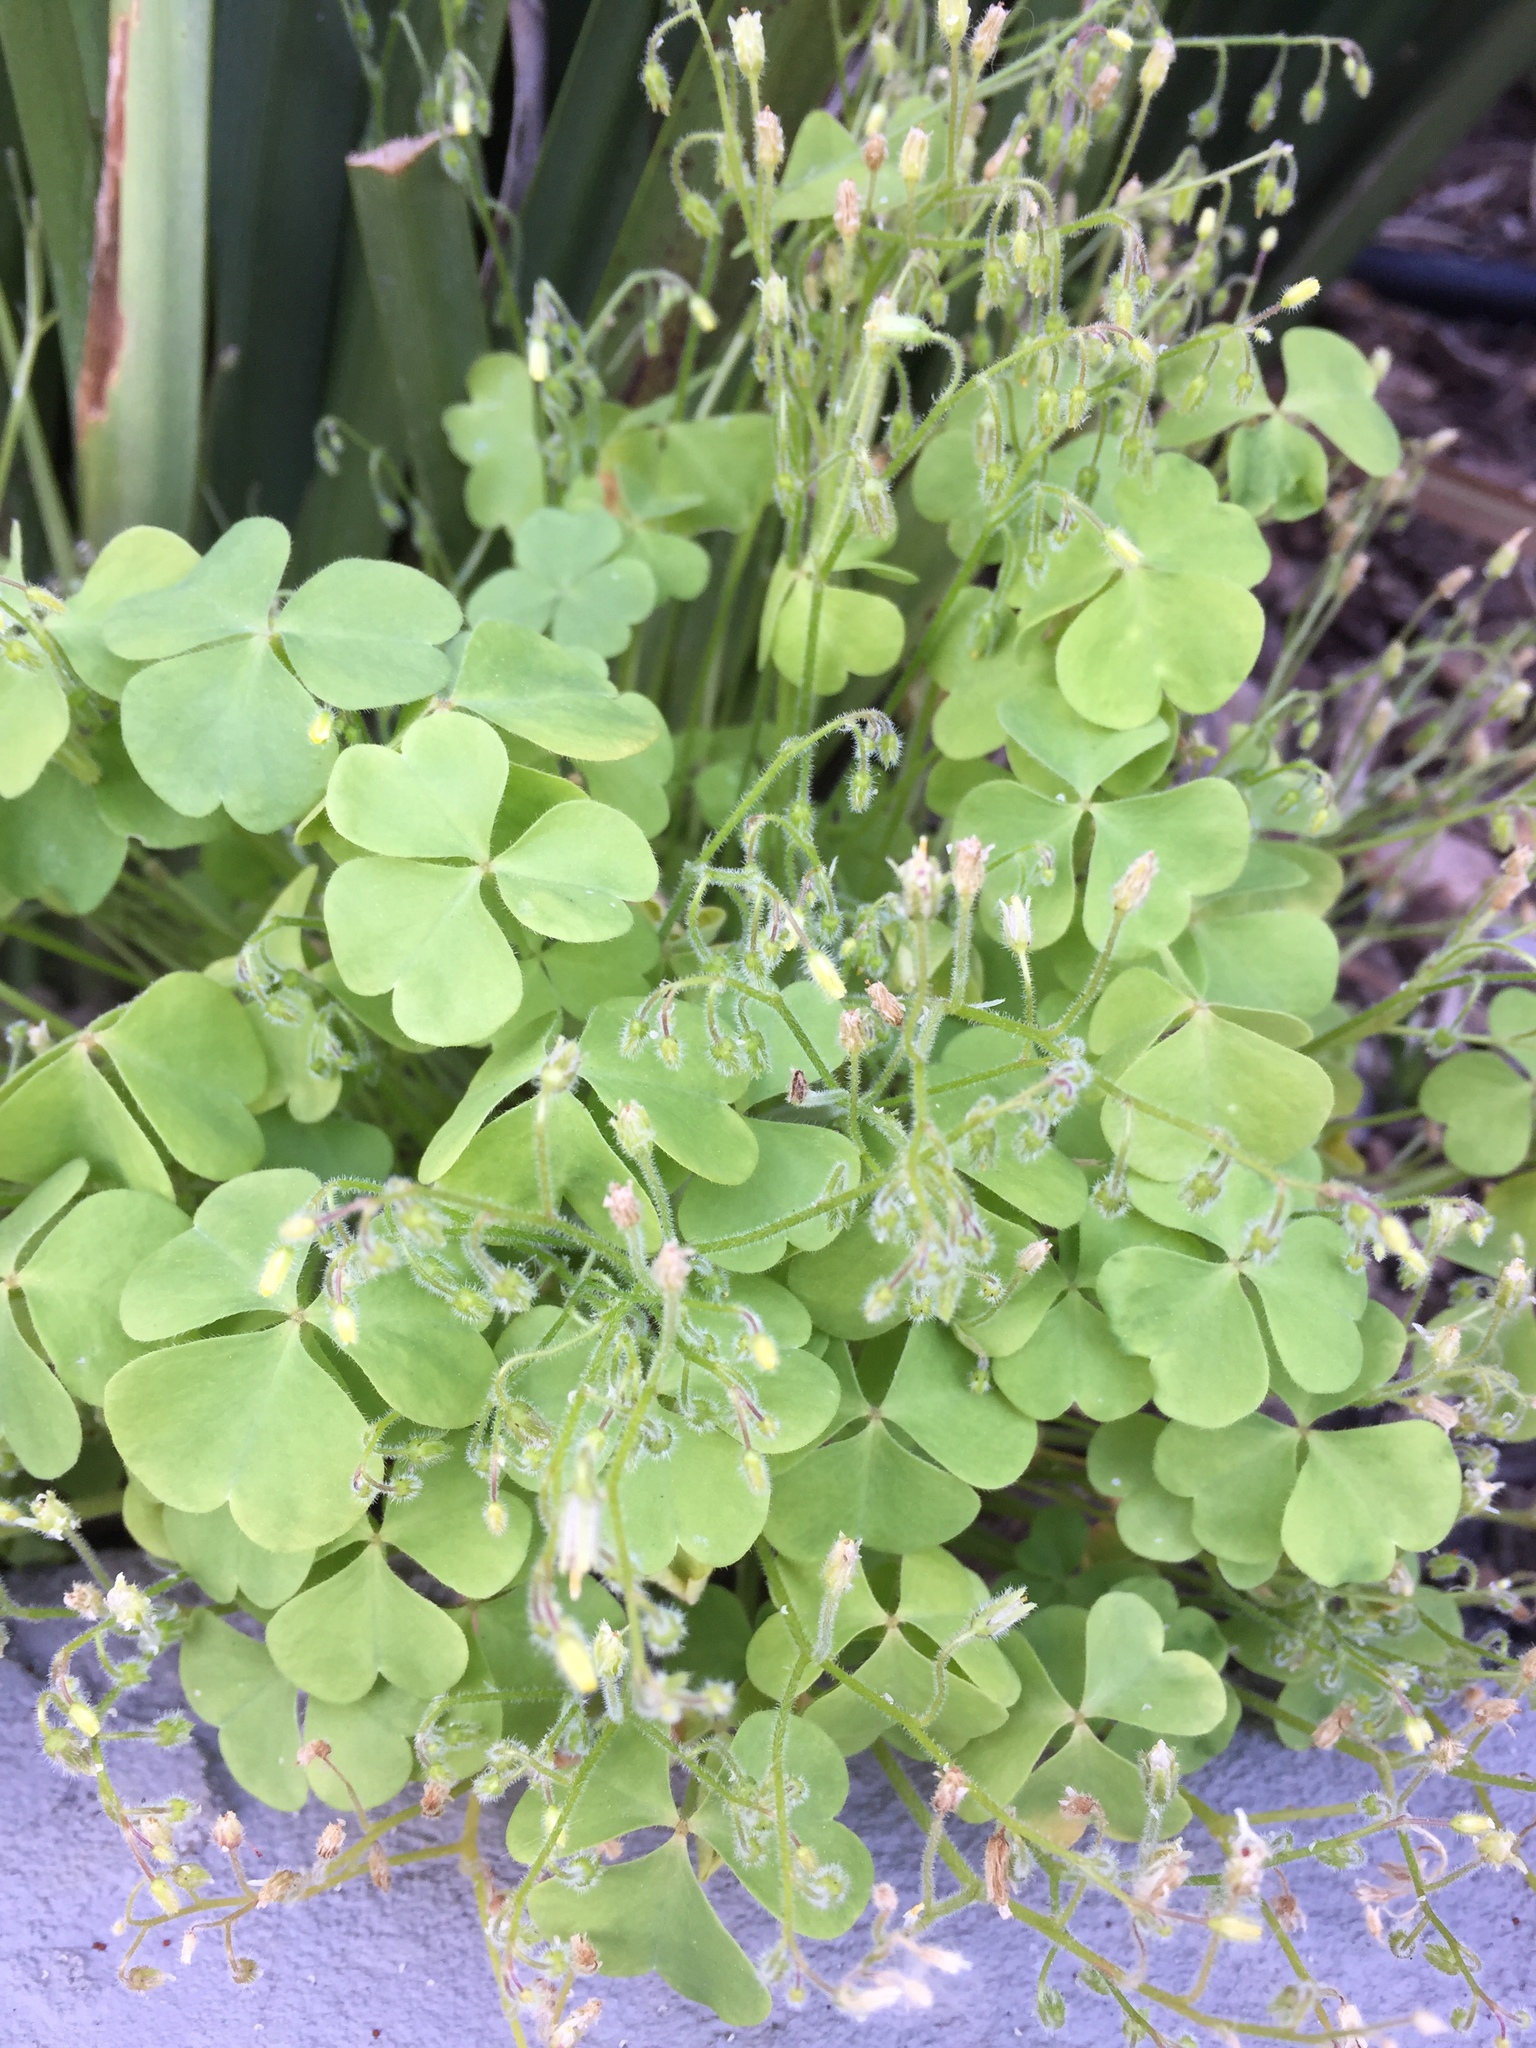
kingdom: Plantae
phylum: Tracheophyta
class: Magnoliopsida
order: Oxalidales
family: Oxalidaceae
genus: Oxalis
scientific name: Oxalis laxa
